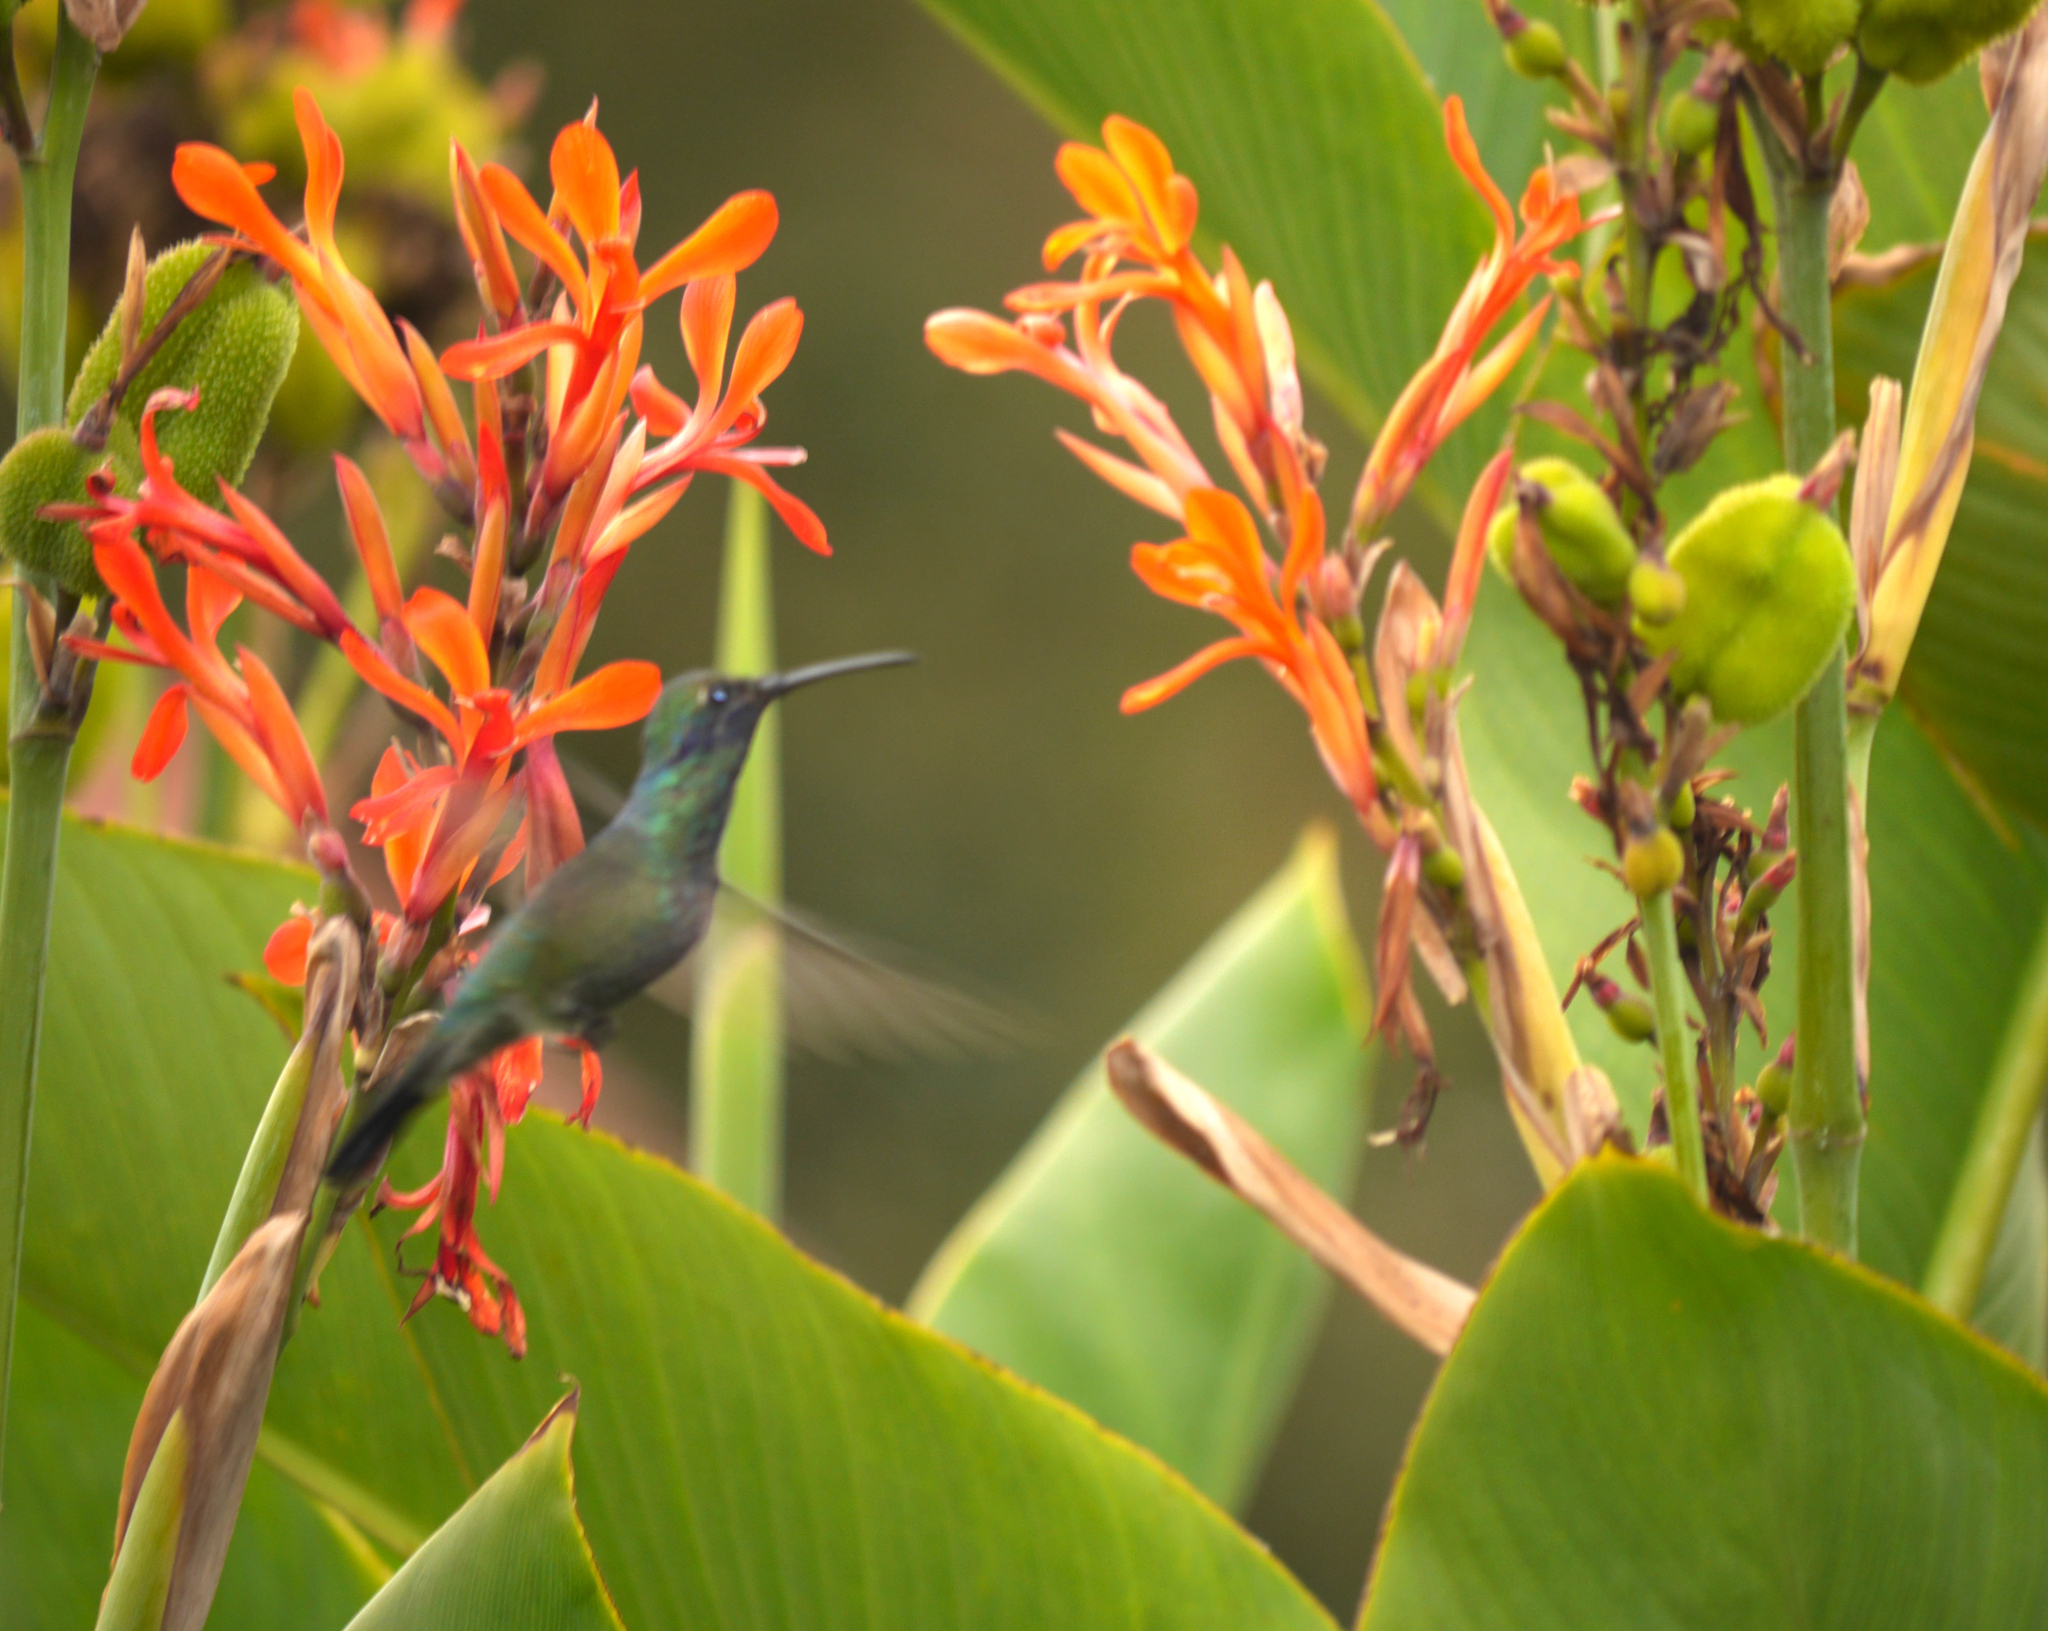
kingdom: Animalia
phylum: Chordata
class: Aves
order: Apodiformes
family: Trochilidae
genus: Colibri
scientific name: Colibri coruscans
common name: Sparkling violetear
